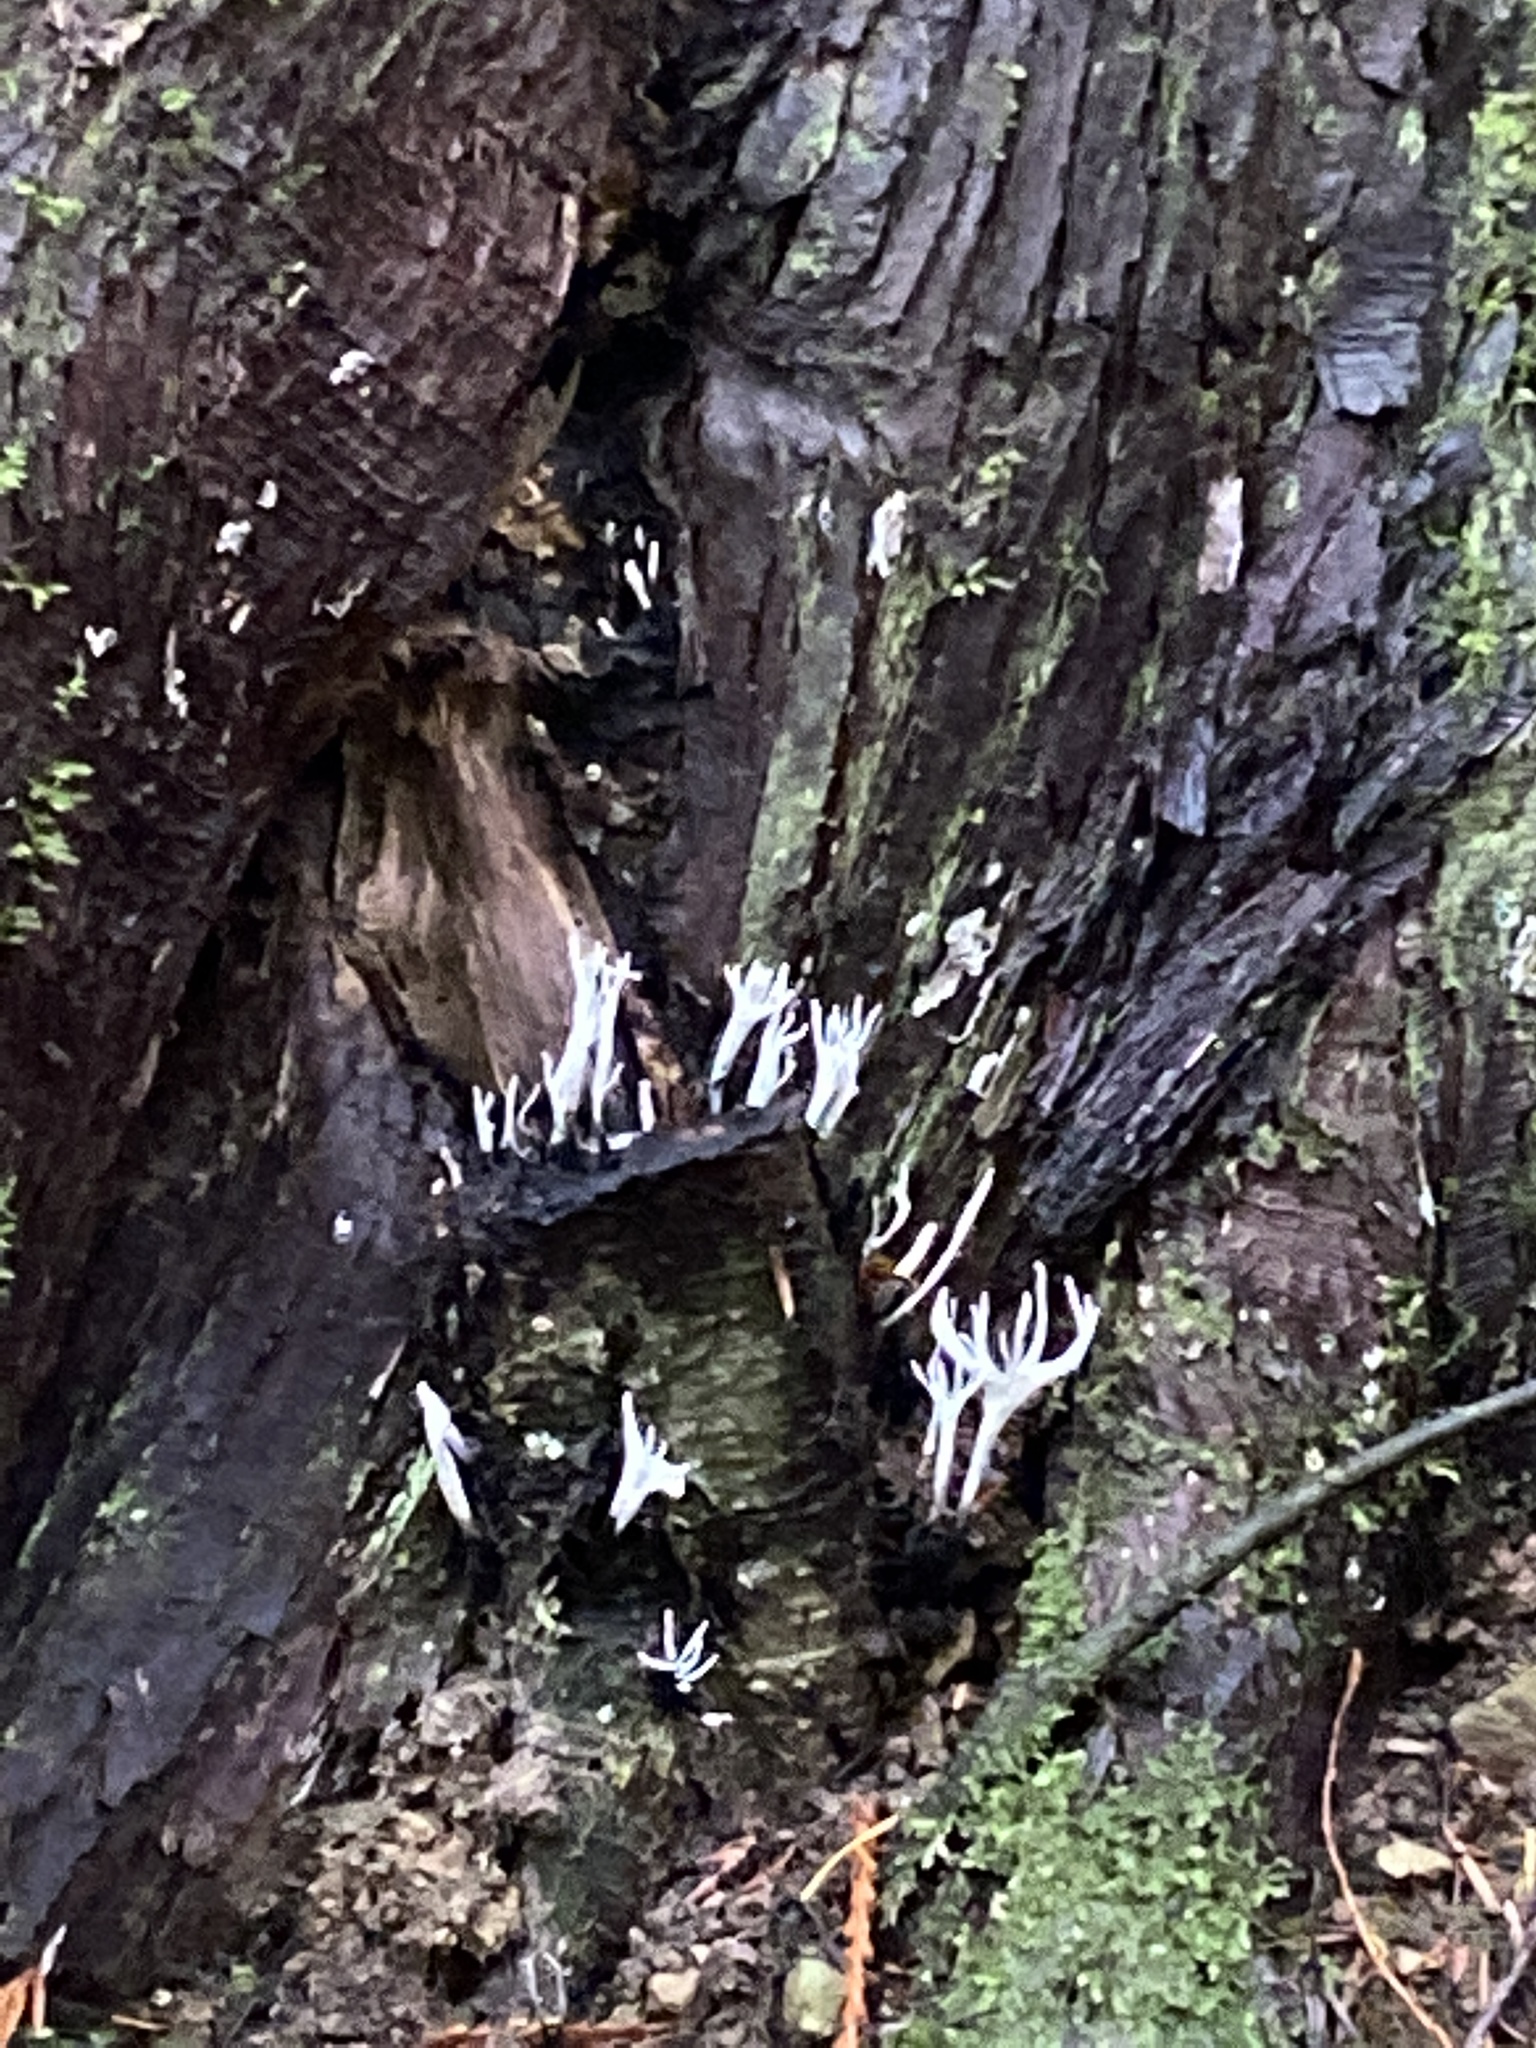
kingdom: Fungi
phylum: Ascomycota
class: Sordariomycetes
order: Xylariales
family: Xylariaceae
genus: Xylaria
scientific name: Xylaria hypoxylon
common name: Candle-snuff fungus
